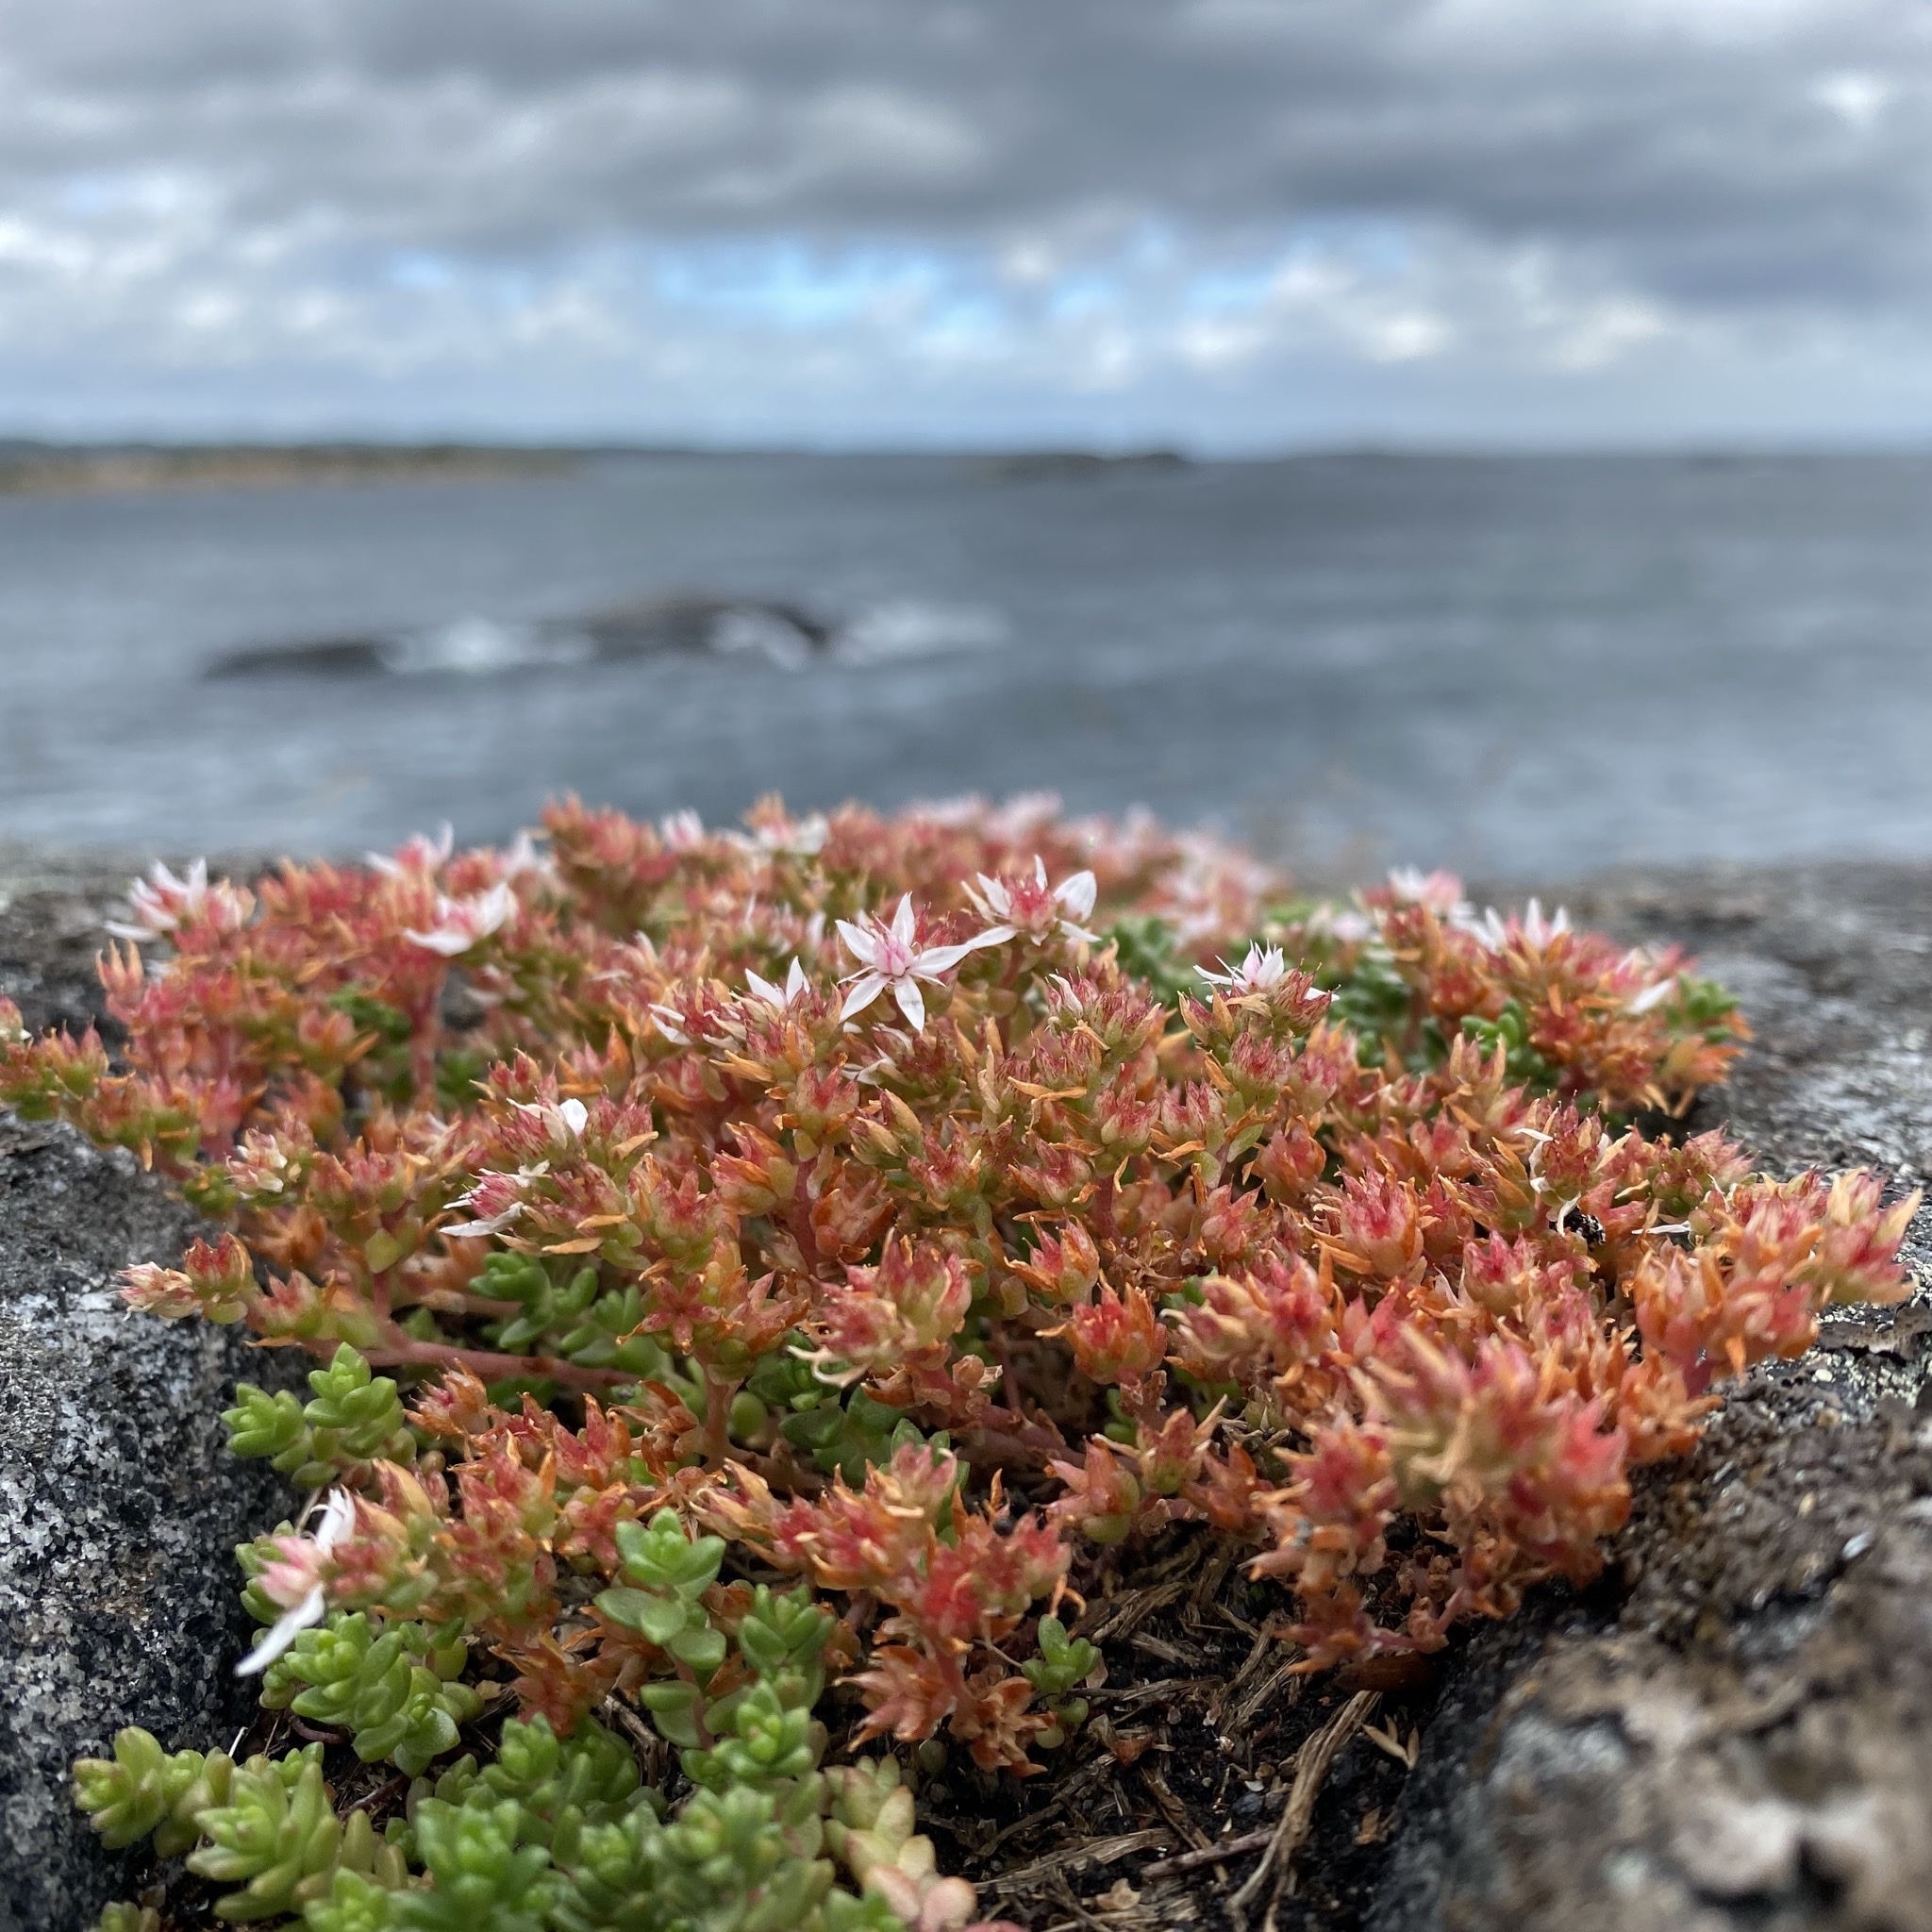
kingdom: Plantae
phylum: Tracheophyta
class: Magnoliopsida
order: Saxifragales
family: Crassulaceae
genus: Sedum
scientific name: Sedum anglicum
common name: English stonecrop
